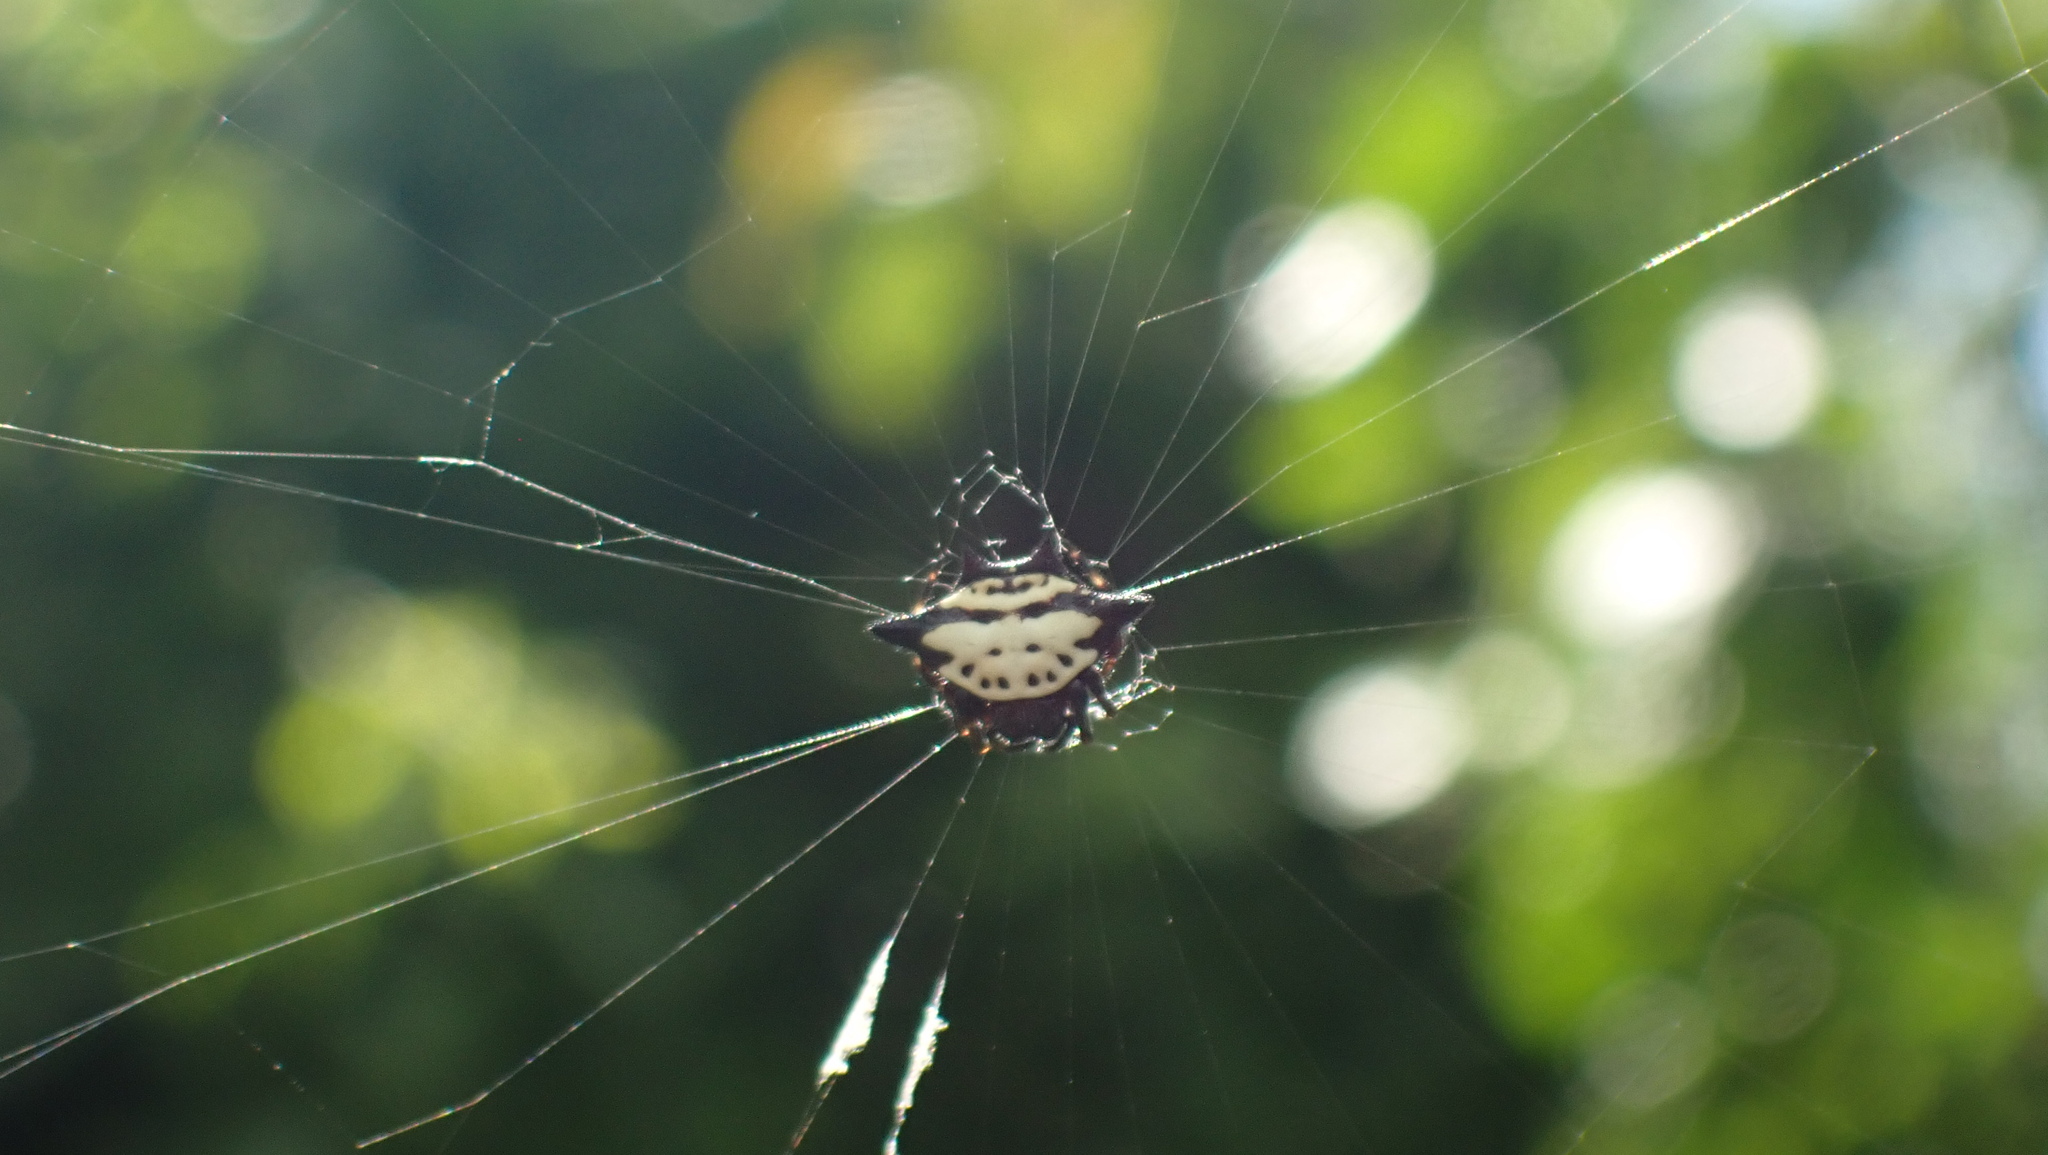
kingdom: Animalia
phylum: Arthropoda
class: Arachnida
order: Araneae
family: Araneidae
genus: Gasteracantha
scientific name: Gasteracantha cancriformis
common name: Orb weavers
